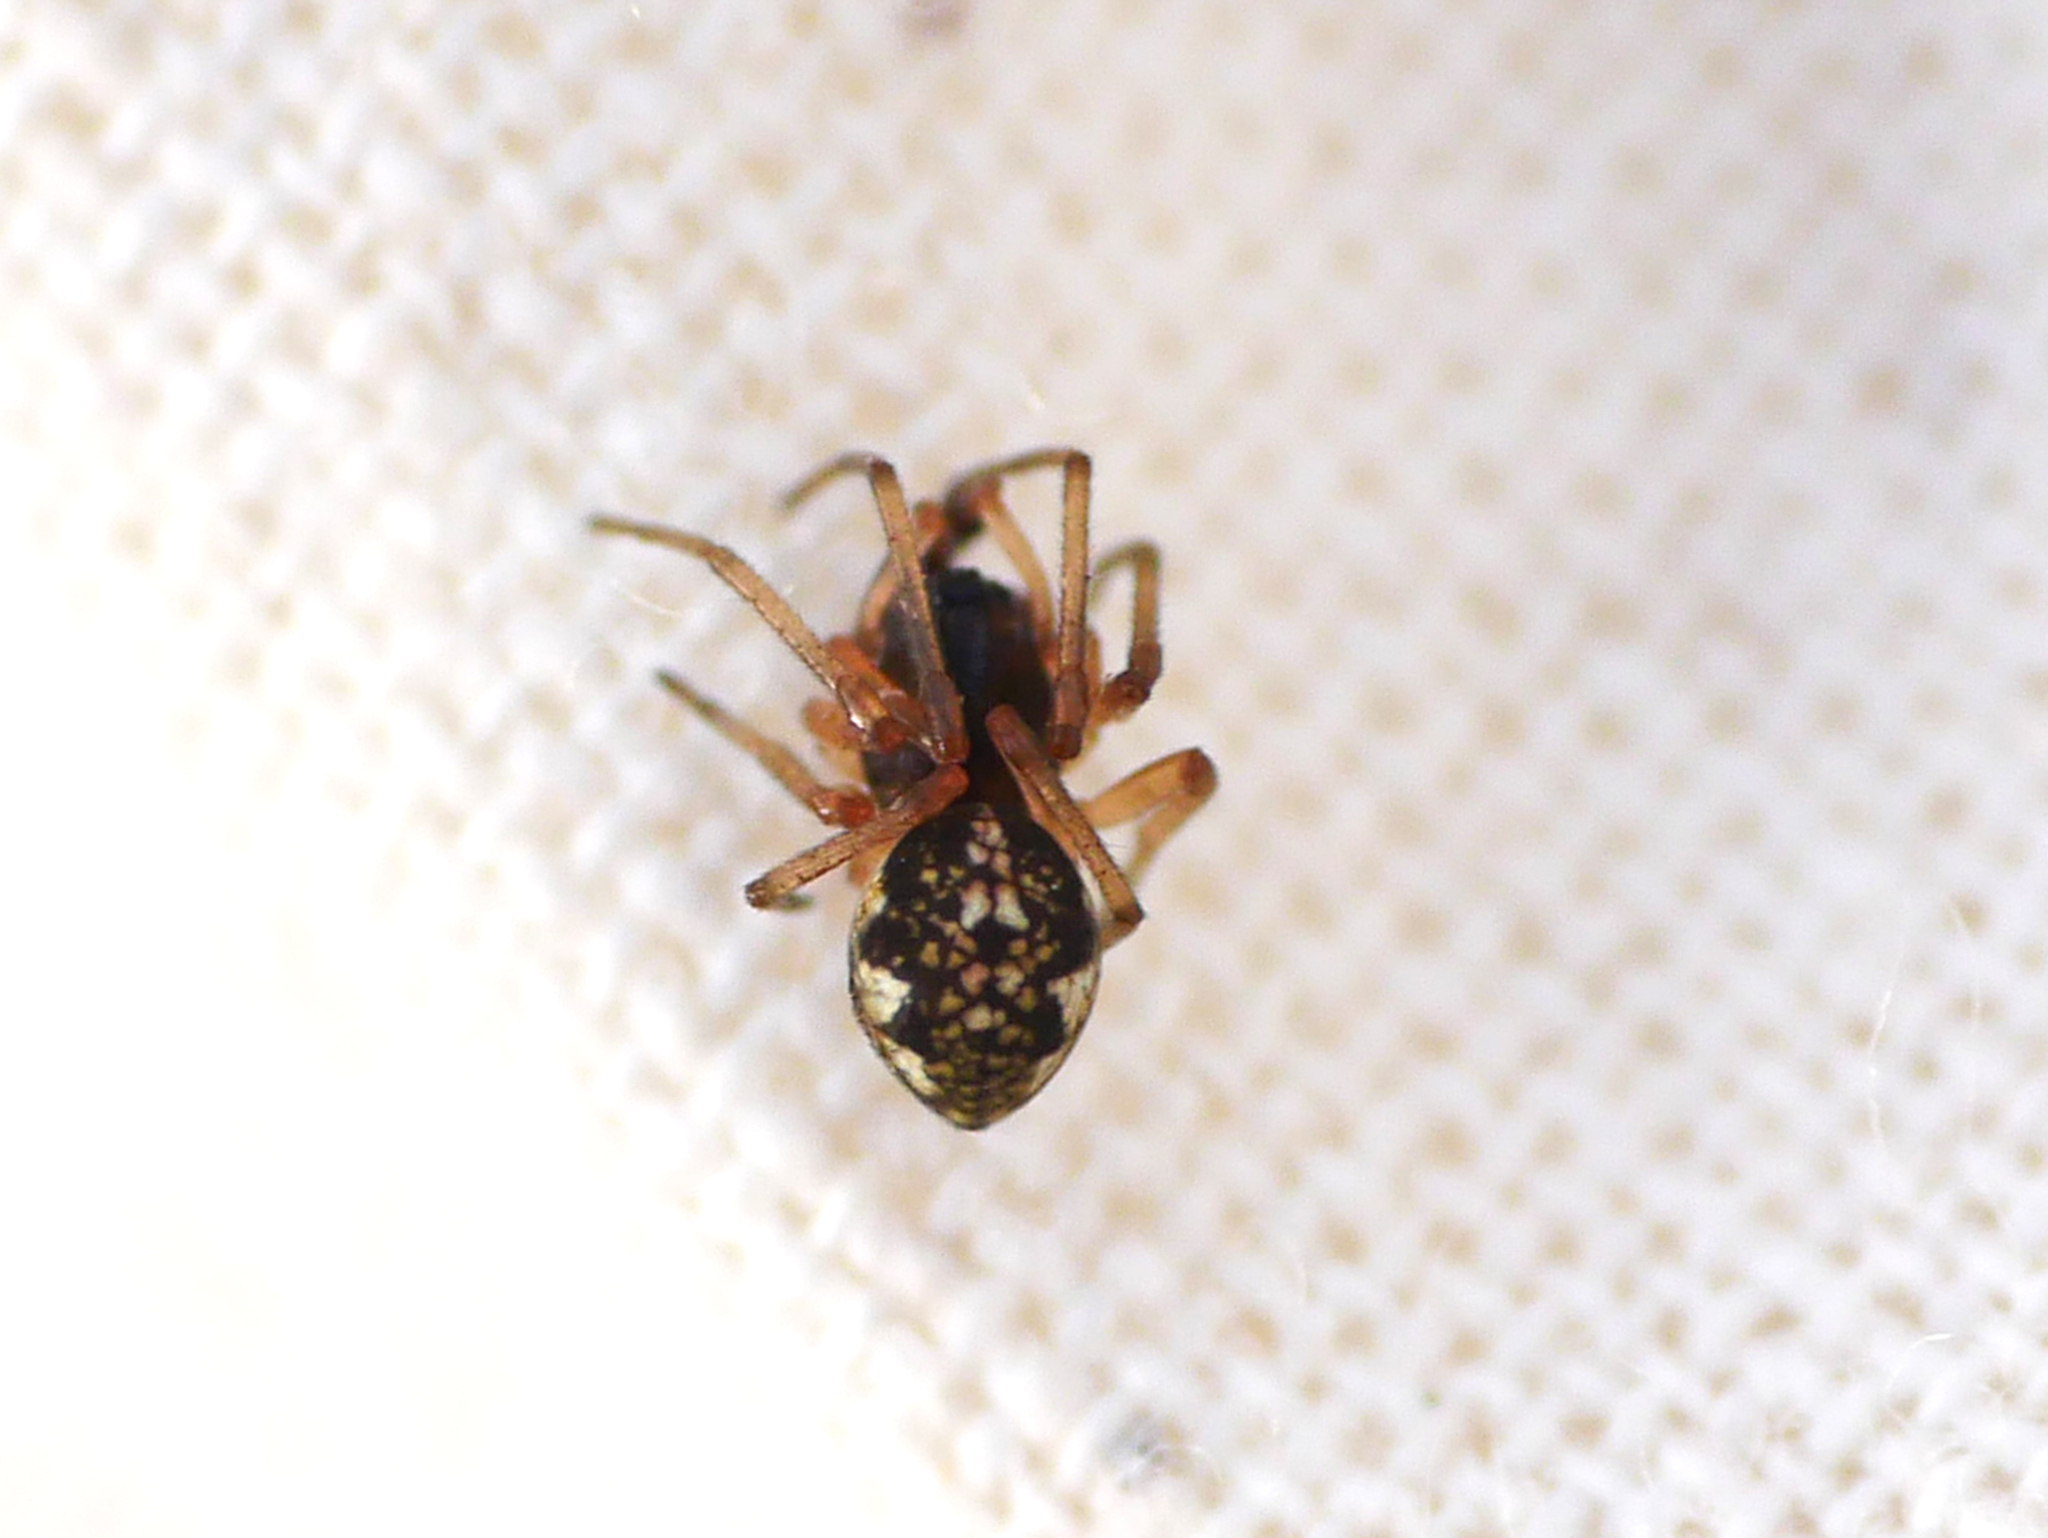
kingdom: Animalia
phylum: Arthropoda
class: Arachnida
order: Araneae
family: Tetragnathidae
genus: Pachygnatha
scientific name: Pachygnatha degeeri
